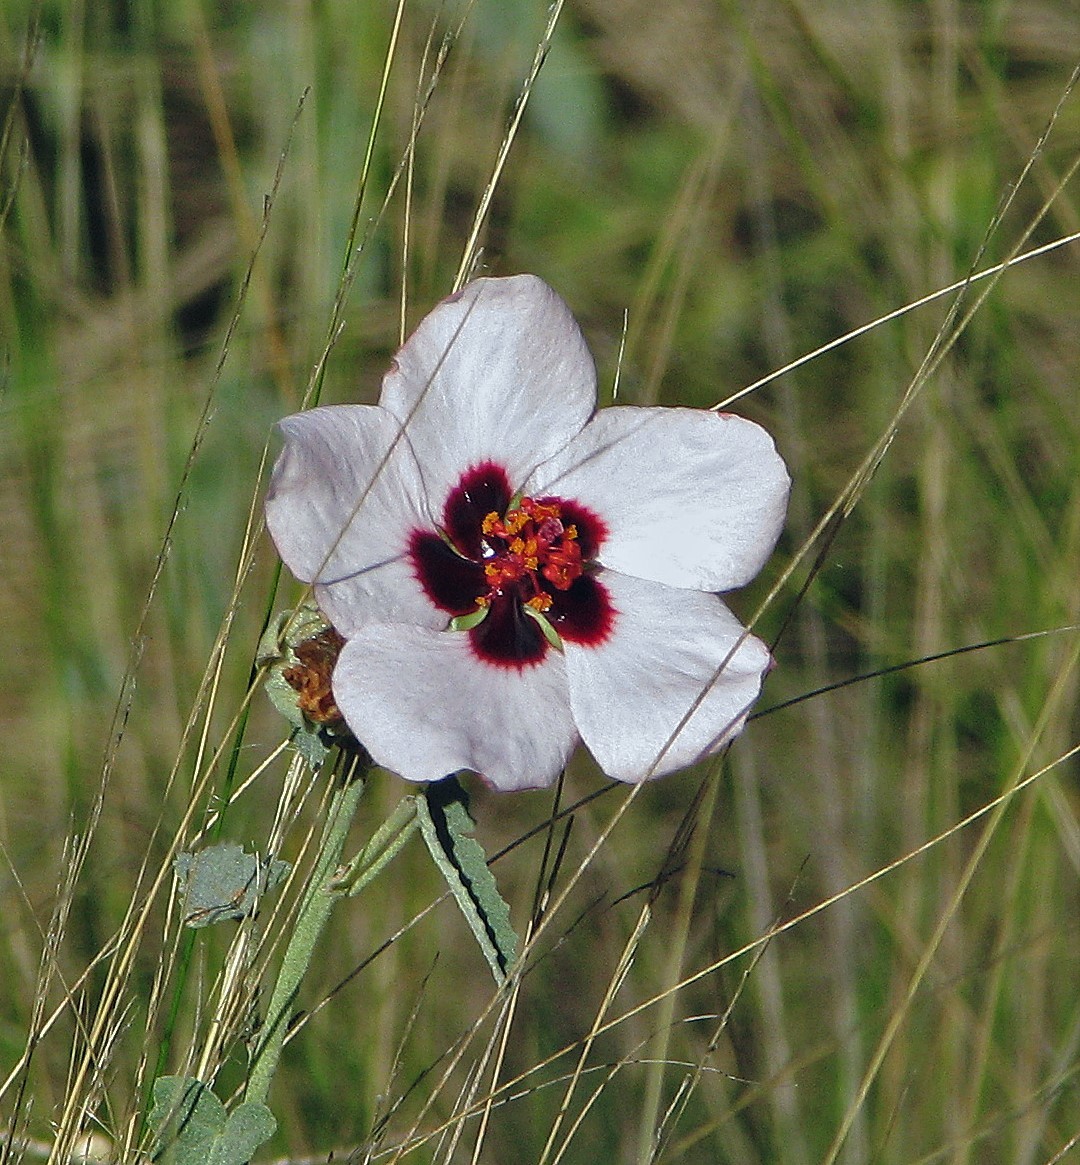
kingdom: Plantae
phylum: Tracheophyta
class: Magnoliopsida
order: Malvales
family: Malvaceae
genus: Pavonia
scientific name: Pavonia aurigloba
